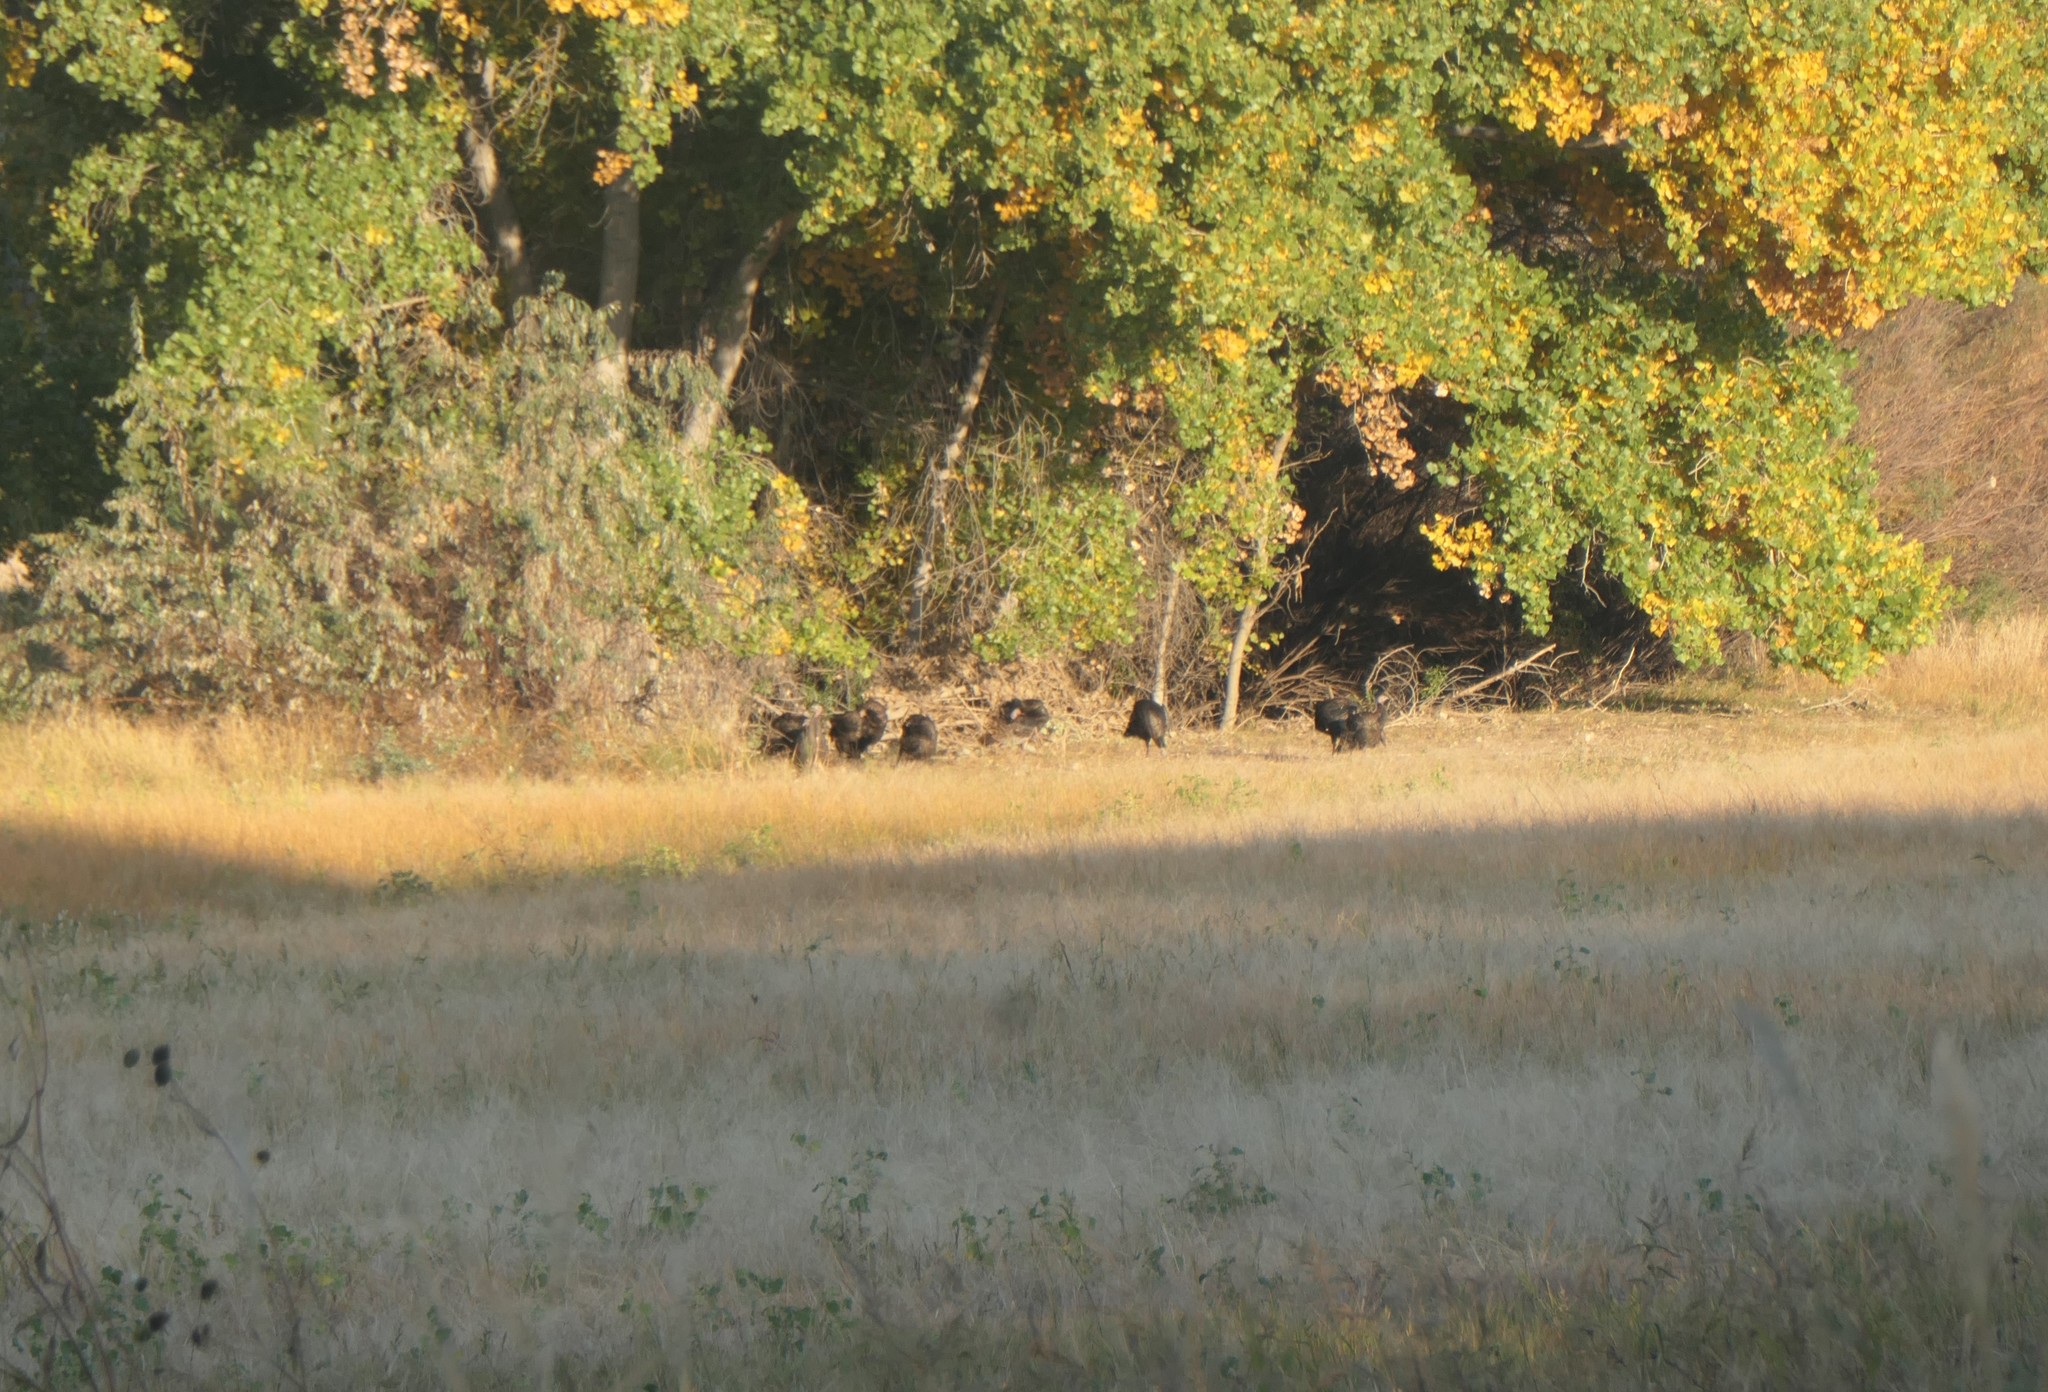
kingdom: Animalia
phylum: Chordata
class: Aves
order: Galliformes
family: Phasianidae
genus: Meleagris
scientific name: Meleagris gallopavo
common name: Wild turkey
